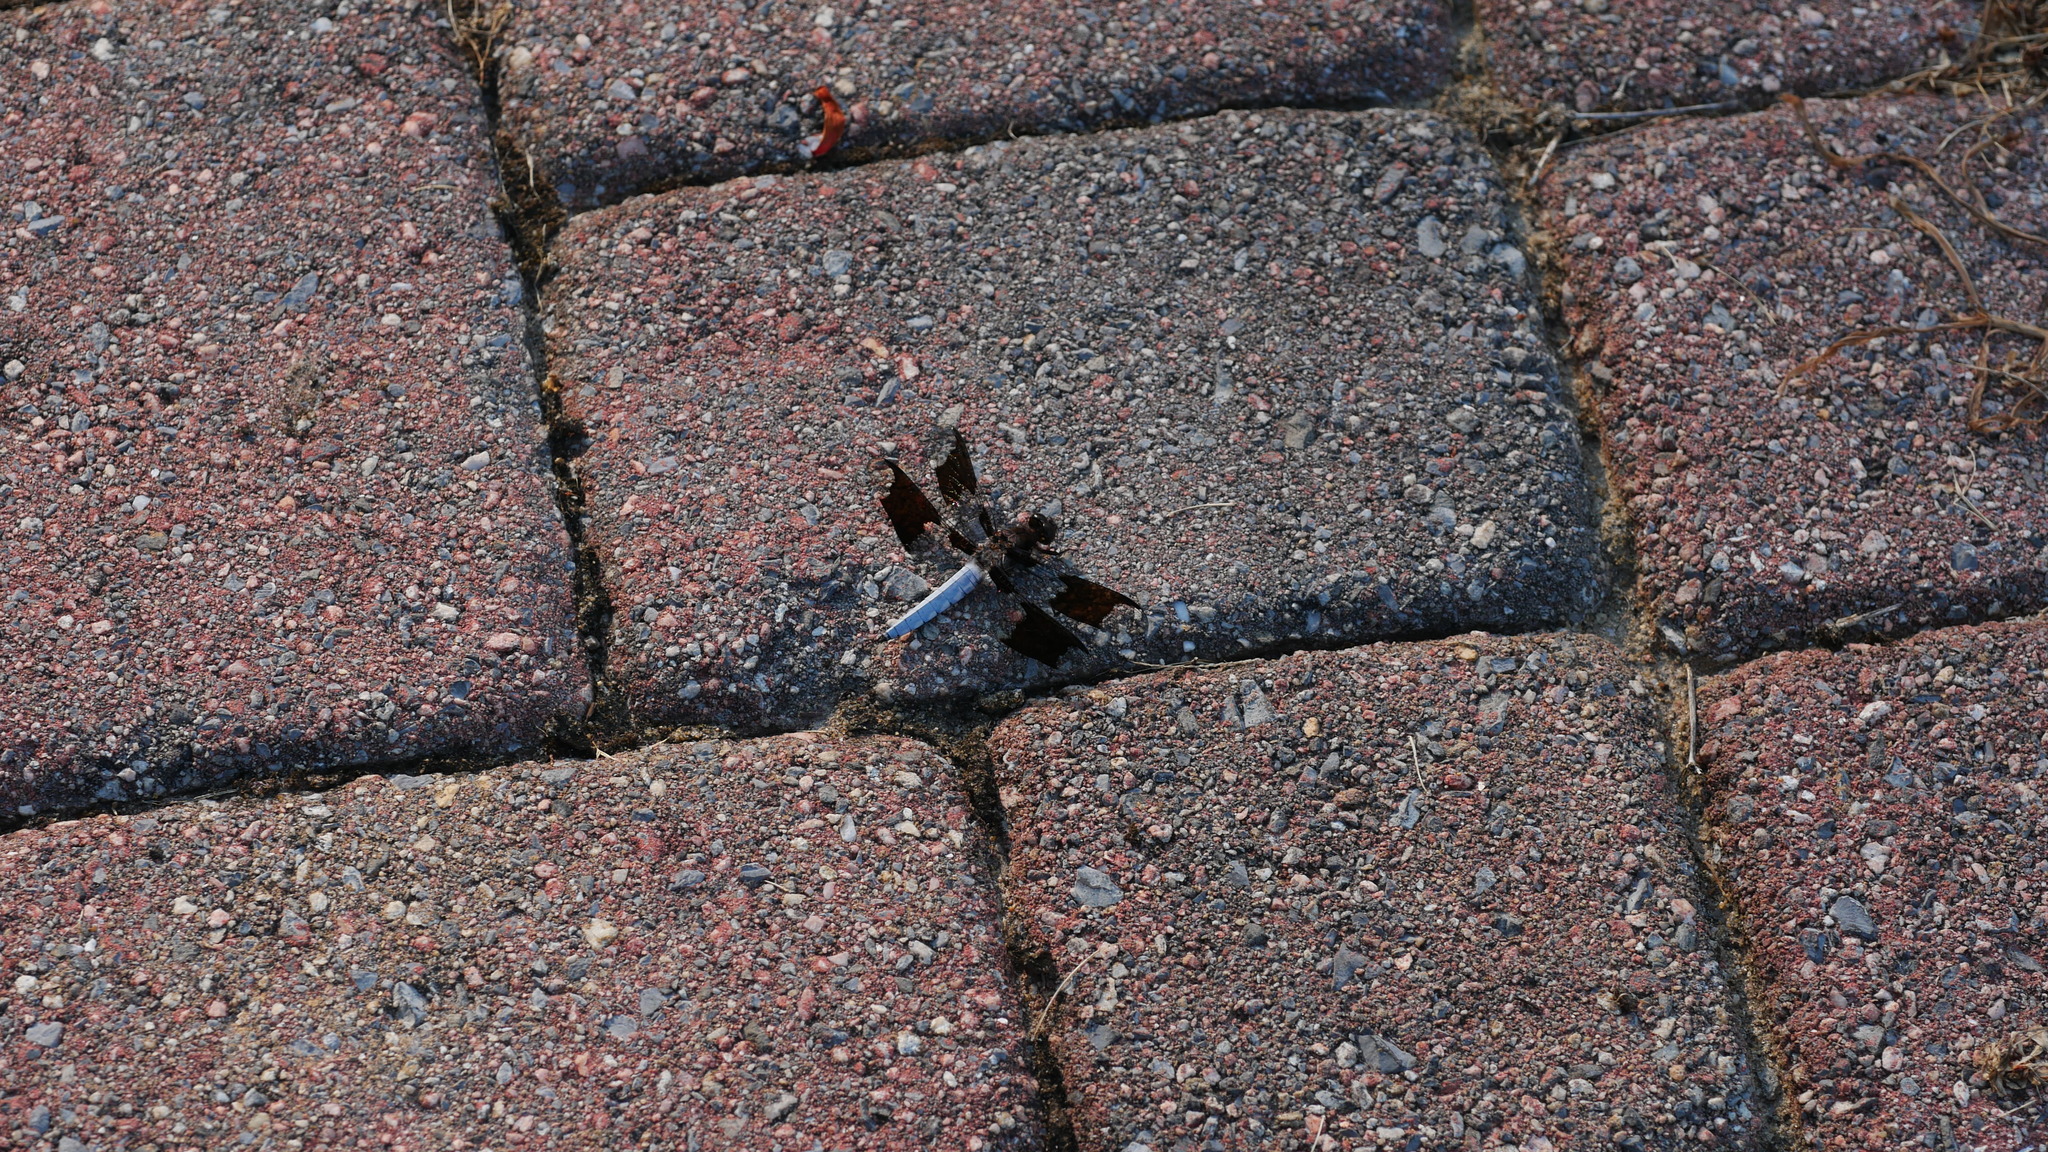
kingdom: Animalia
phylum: Arthropoda
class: Insecta
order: Odonata
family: Libellulidae
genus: Plathemis
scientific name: Plathemis lydia
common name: Common whitetail
